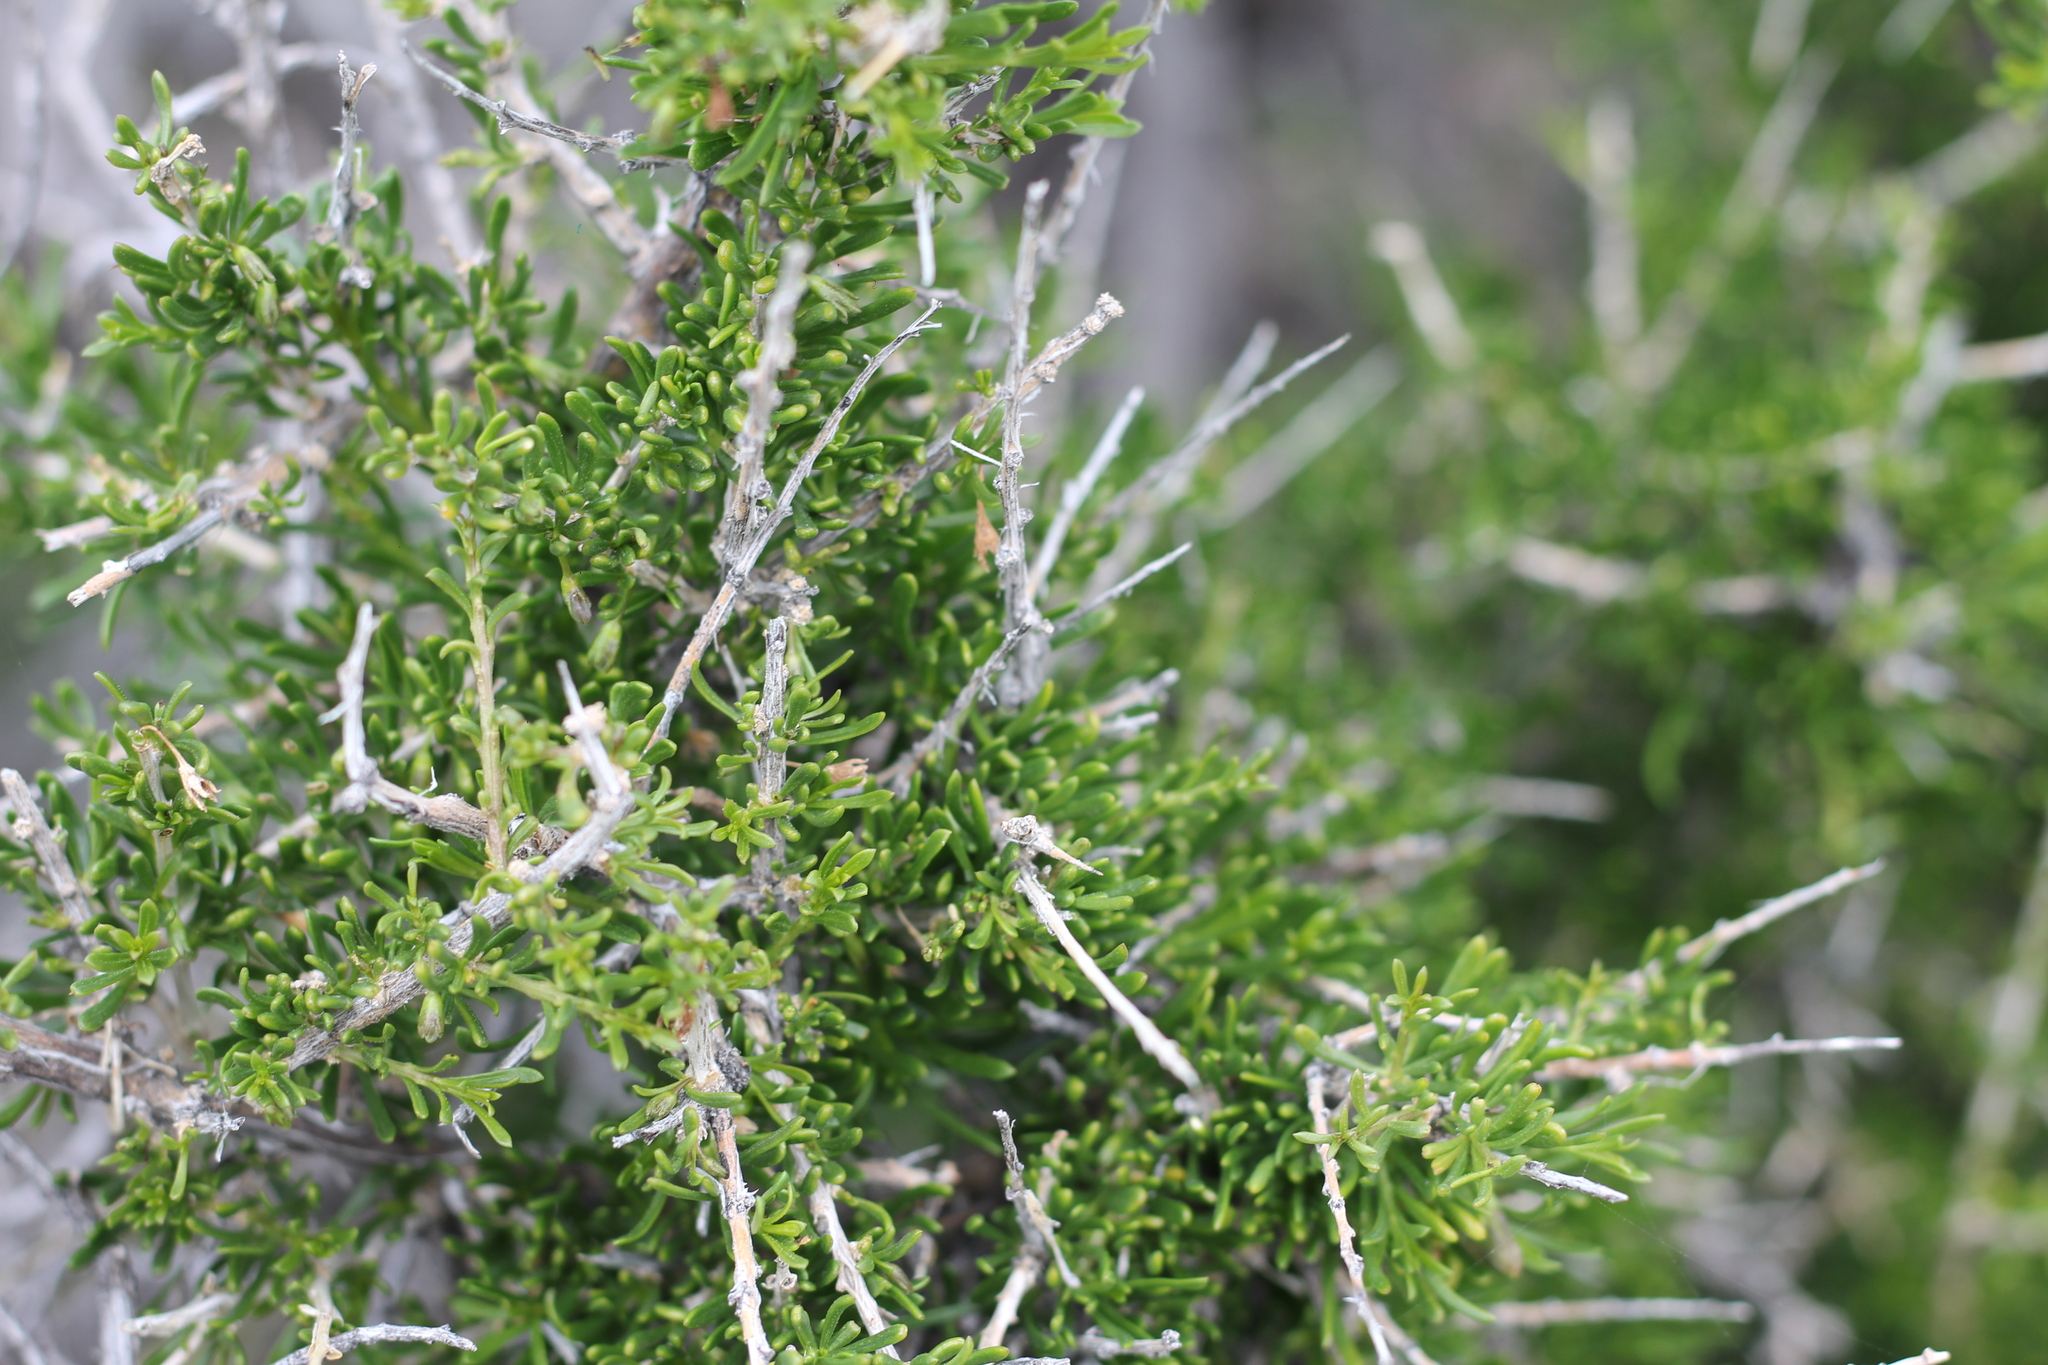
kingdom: Plantae
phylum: Tracheophyta
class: Magnoliopsida
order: Solanales
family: Solanaceae
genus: Lycium
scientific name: Lycium chilense
